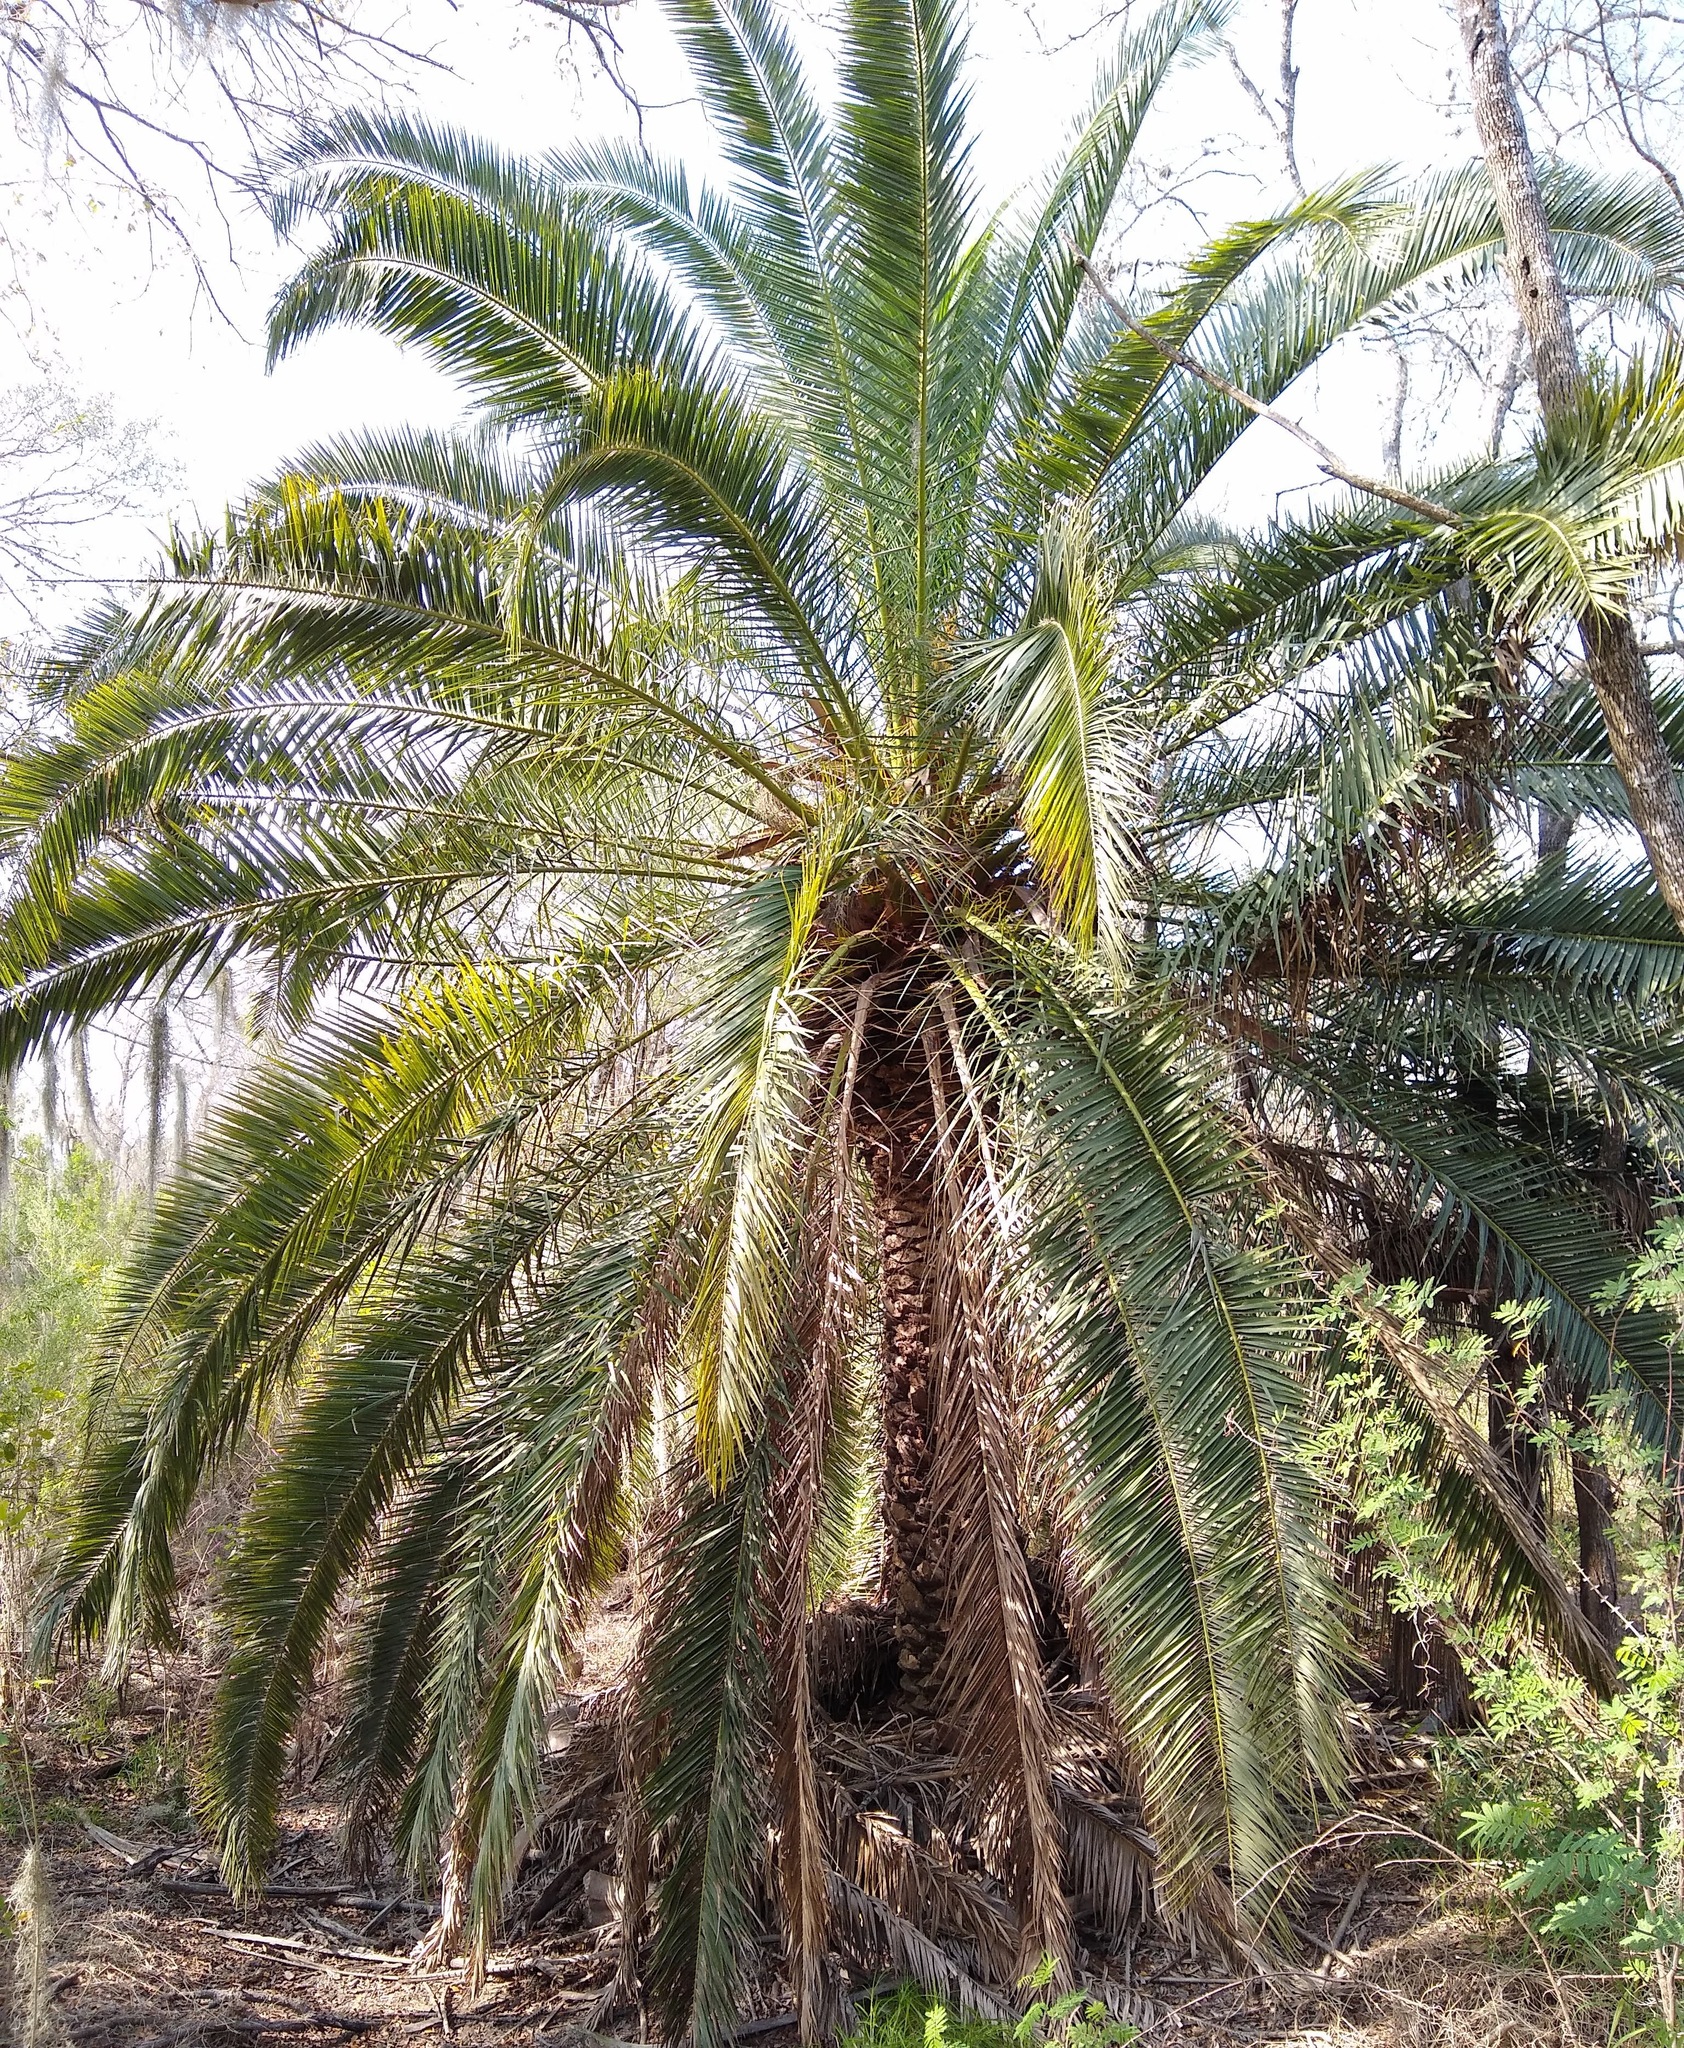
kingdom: Plantae
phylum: Tracheophyta
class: Liliopsida
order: Arecales
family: Arecaceae
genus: Phoenix
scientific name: Phoenix reclinata
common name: Senegal date palm
